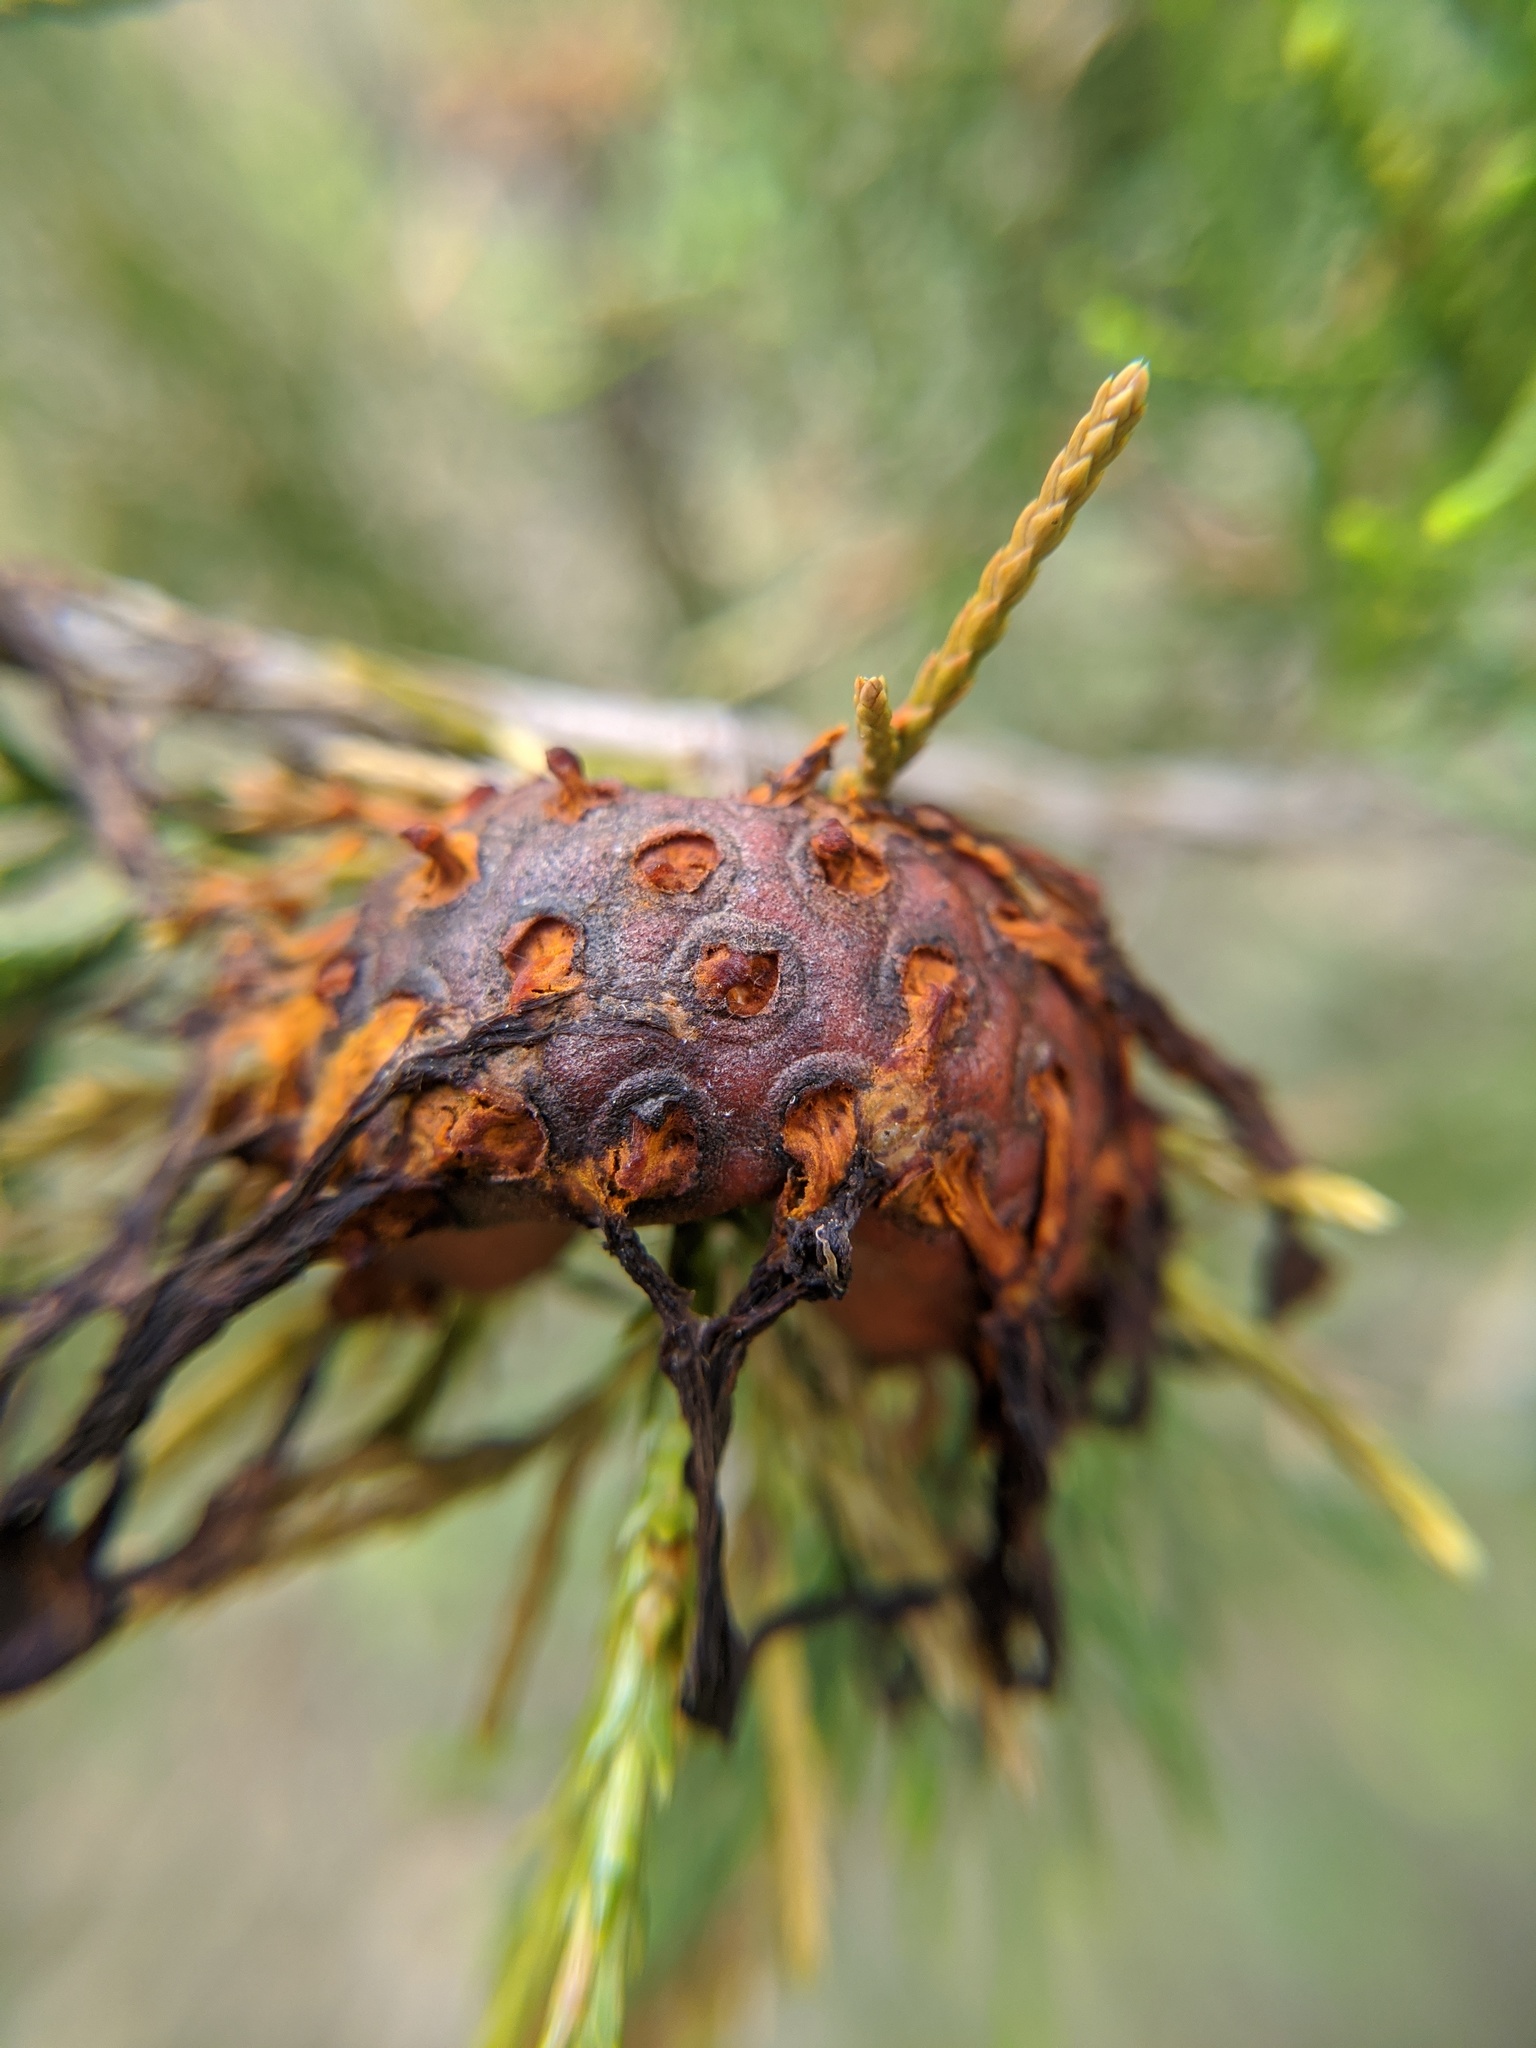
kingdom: Fungi
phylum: Basidiomycota
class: Pucciniomycetes
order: Pucciniales
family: Gymnosporangiaceae
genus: Gymnosporangium
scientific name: Gymnosporangium juniperi-virginianae
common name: Juniper-apple rust
